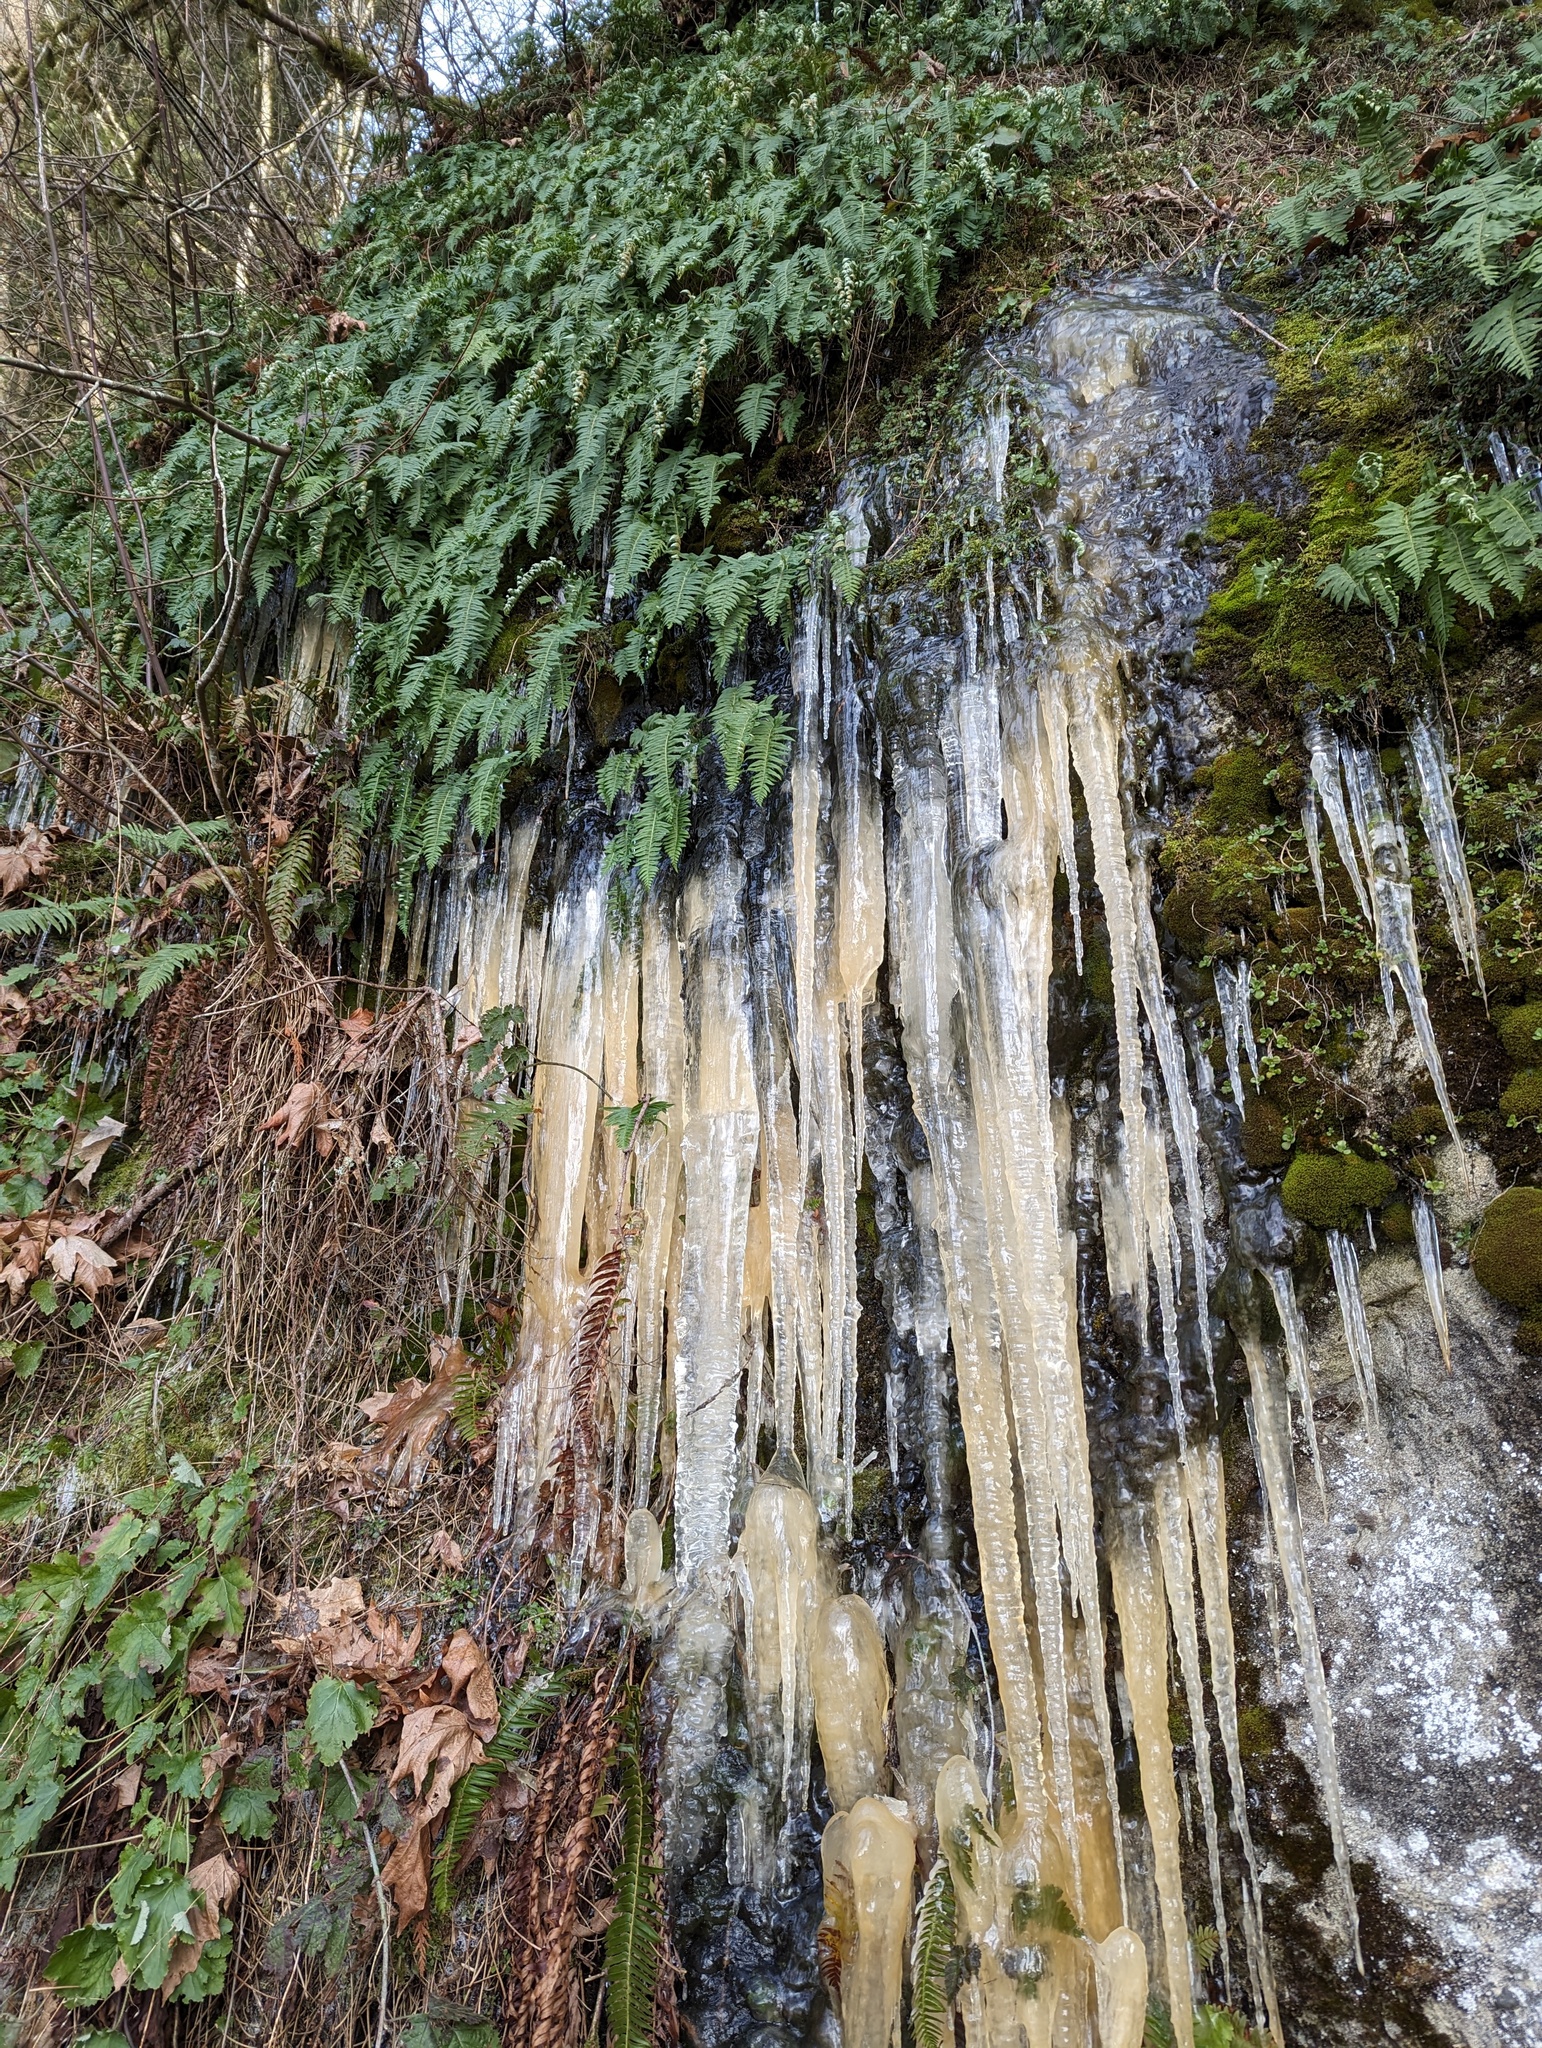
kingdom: Plantae
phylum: Tracheophyta
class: Polypodiopsida
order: Polypodiales
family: Polypodiaceae
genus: Polypodium
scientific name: Polypodium glycyrrhiza
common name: Licorice fern
